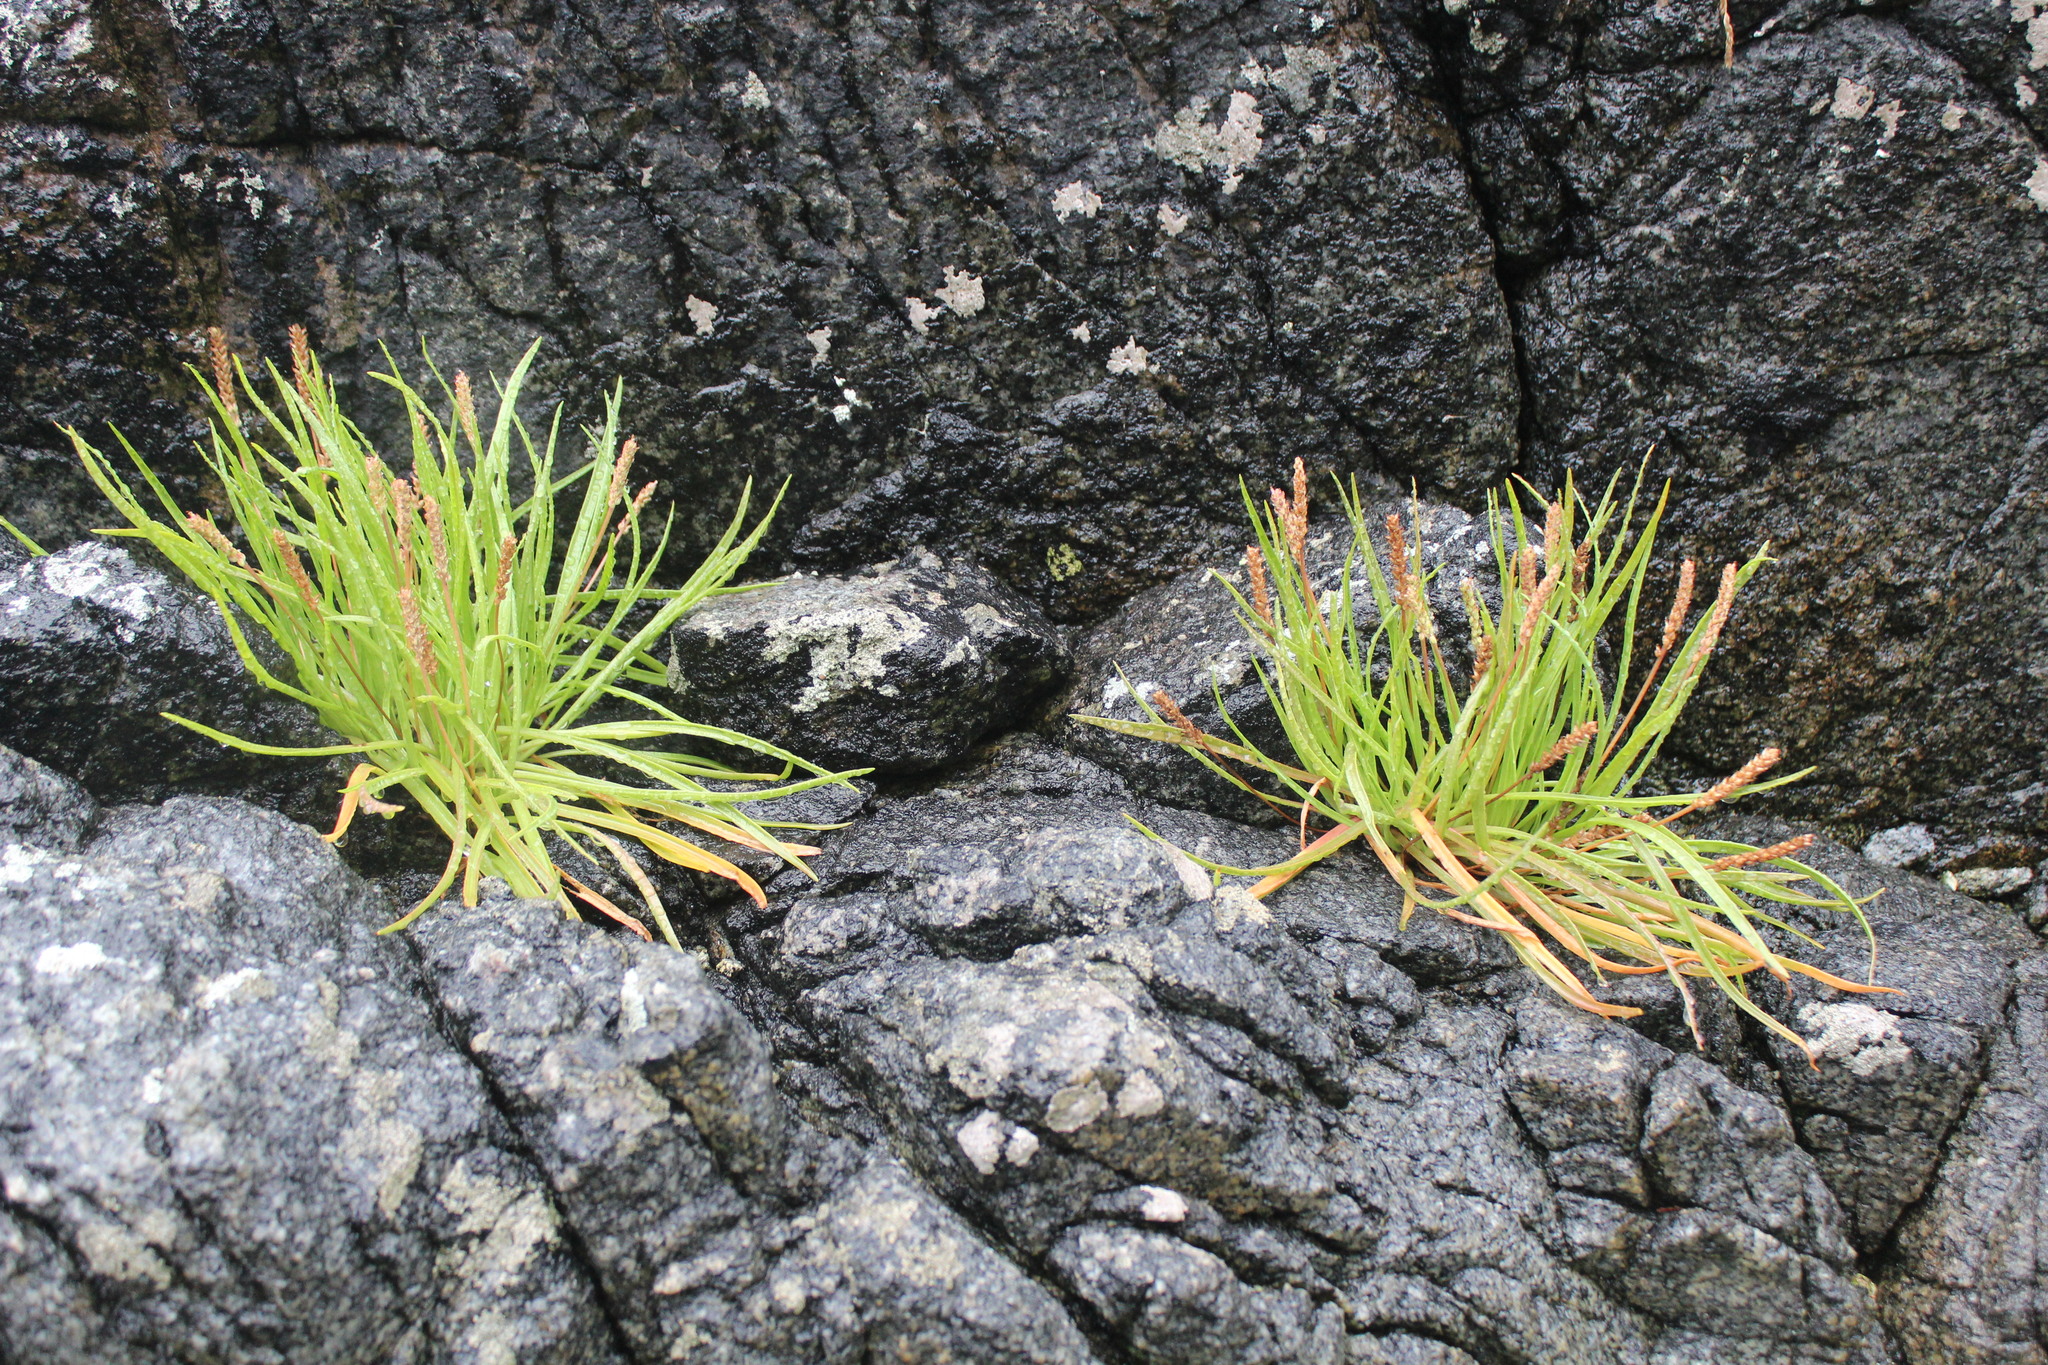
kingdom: Plantae
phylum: Tracheophyta
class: Magnoliopsida
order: Lamiales
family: Plantaginaceae
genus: Plantago
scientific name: Plantago maritima
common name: Sea plantain
